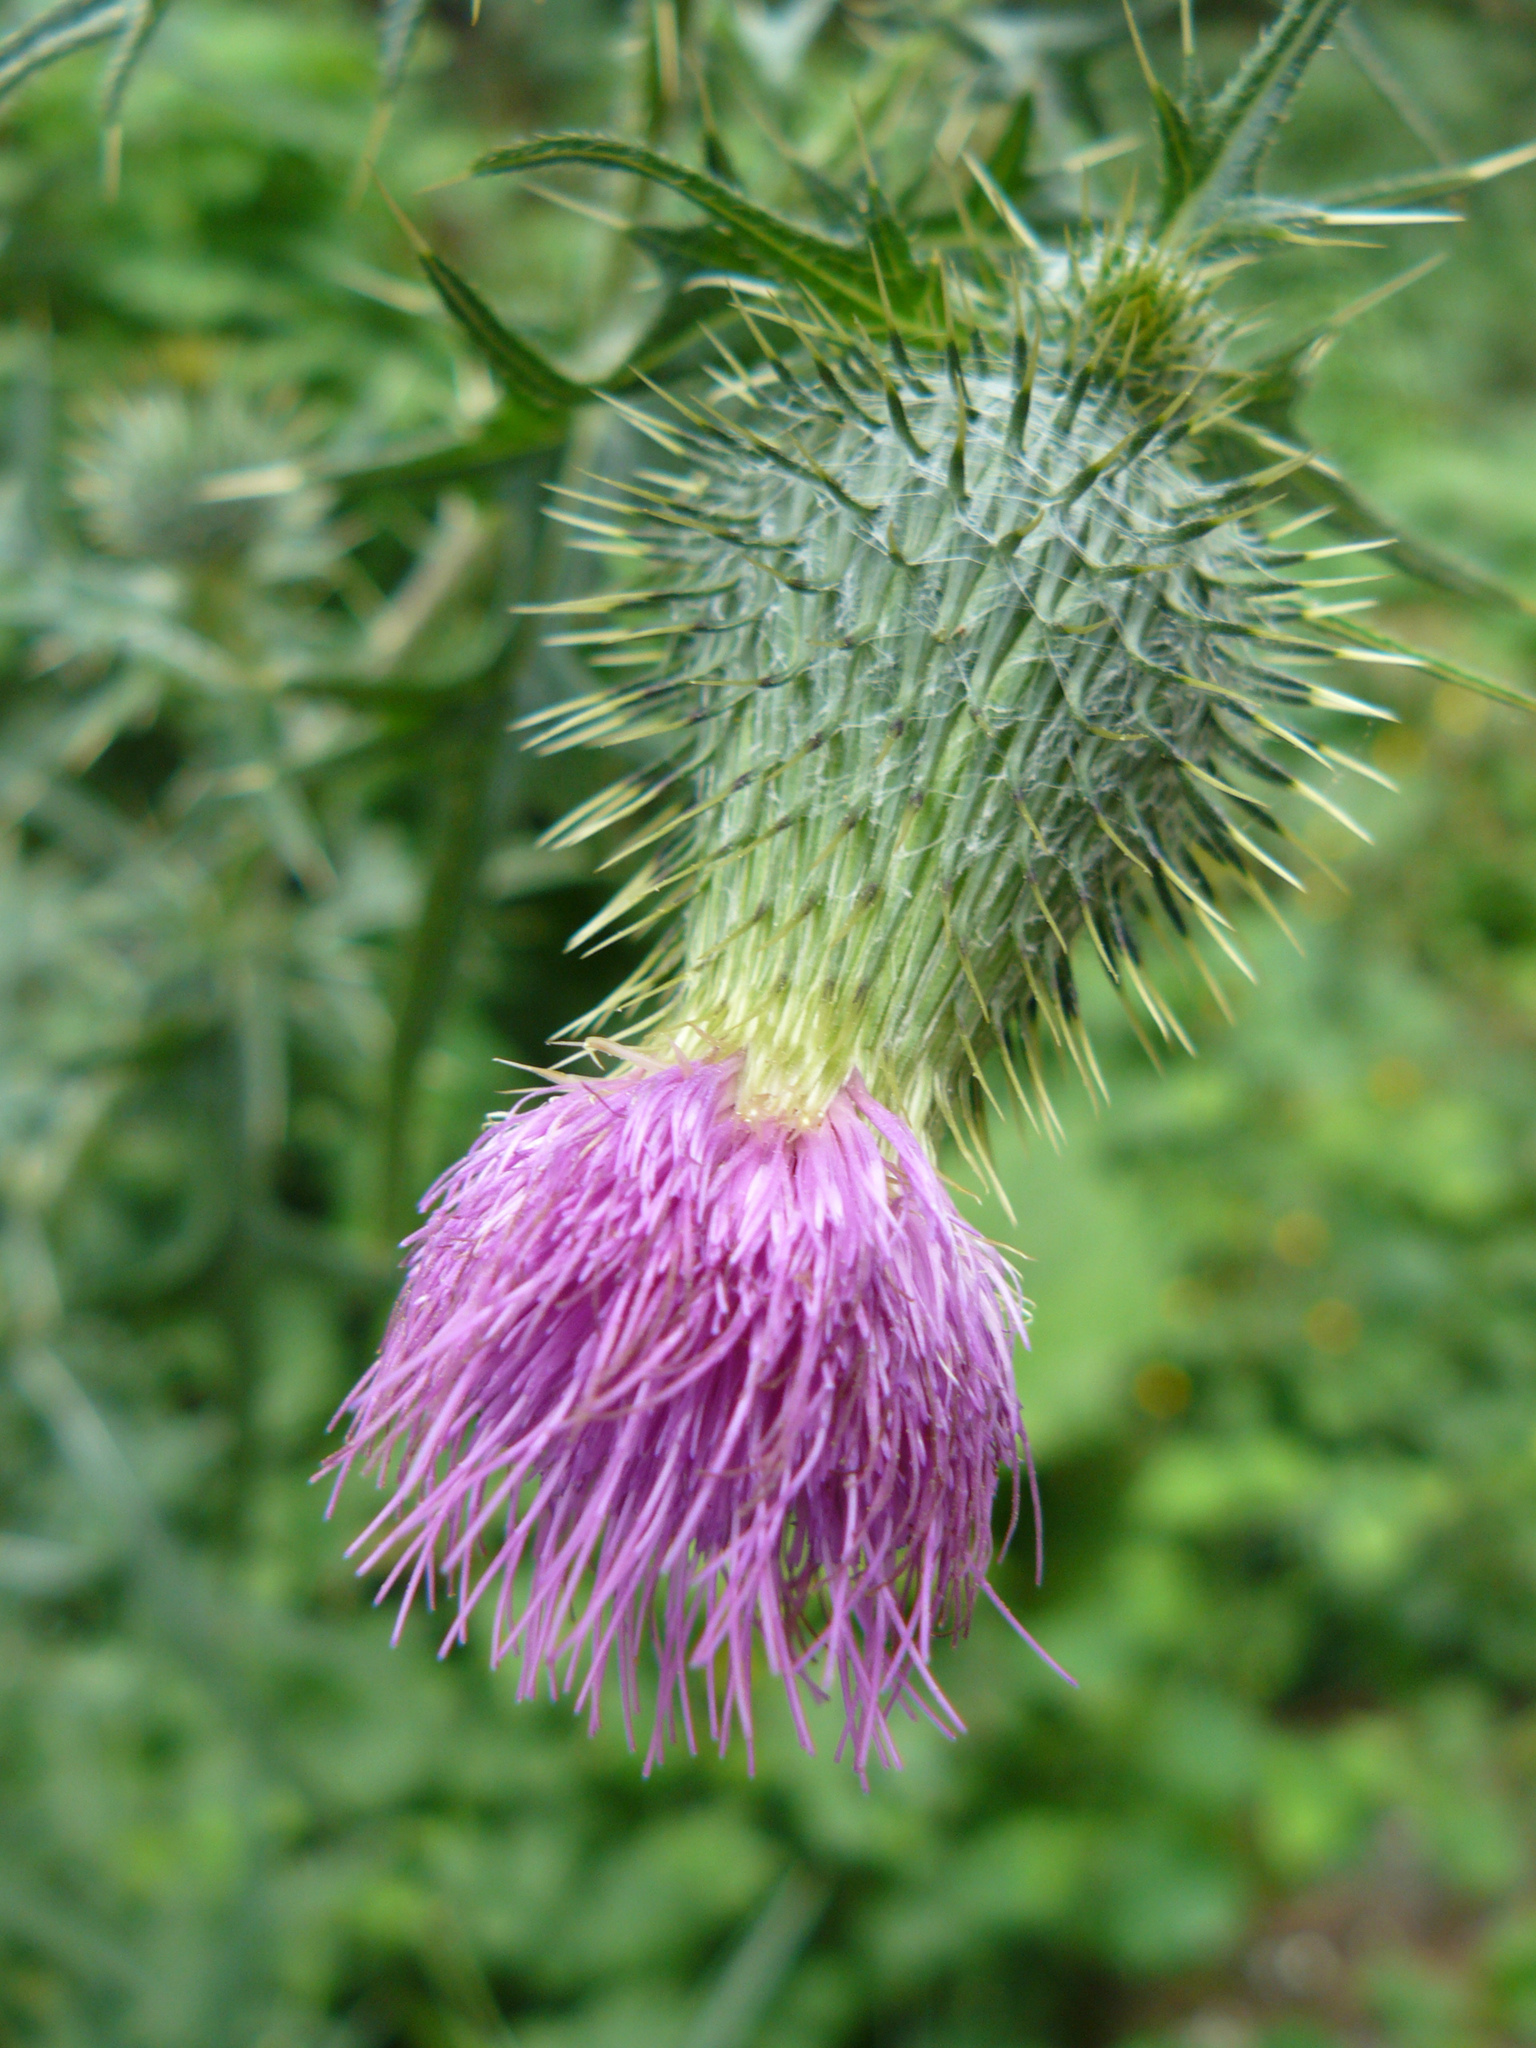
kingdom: Plantae
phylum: Tracheophyta
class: Magnoliopsida
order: Asterales
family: Asteraceae
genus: Cirsium
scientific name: Cirsium vulgare
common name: Bull thistle
